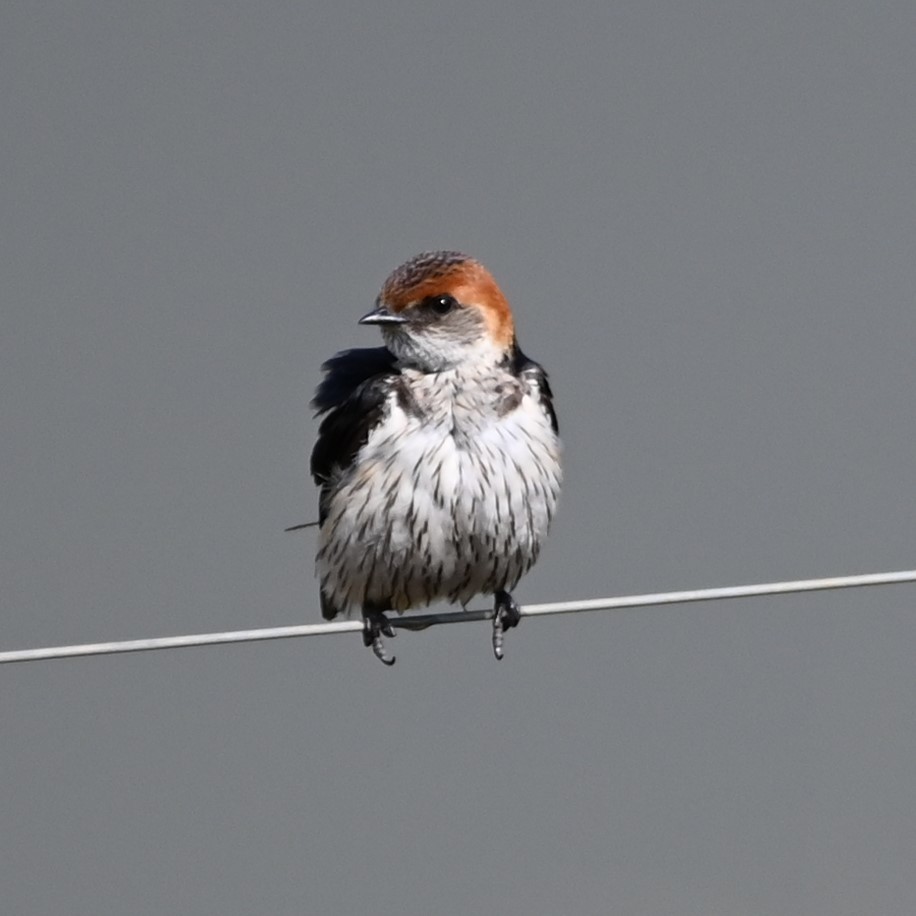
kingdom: Animalia
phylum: Chordata
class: Aves
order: Passeriformes
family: Hirundinidae
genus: Cecropis
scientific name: Cecropis abyssinica
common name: Lesser striped-swallow
